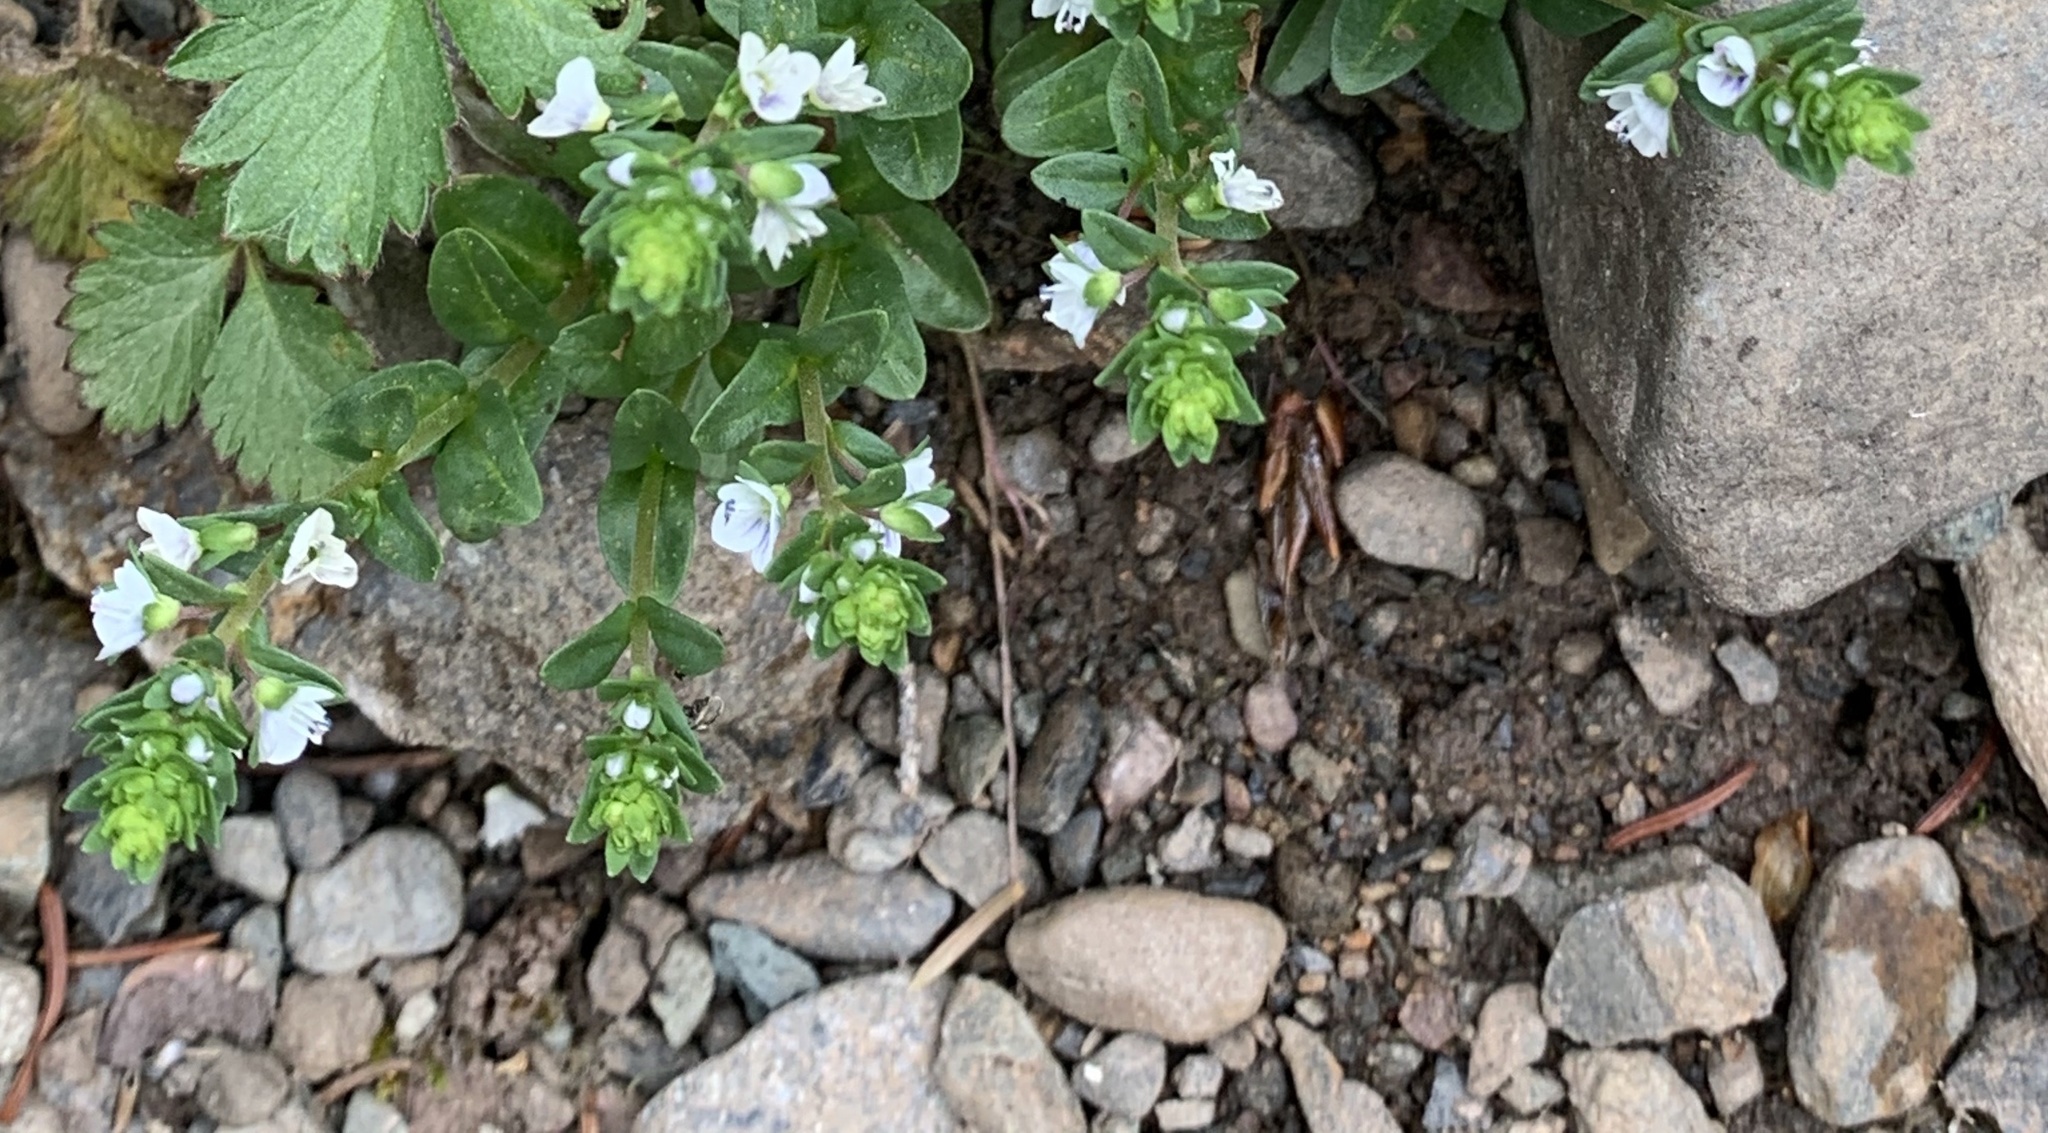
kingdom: Plantae
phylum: Tracheophyta
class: Magnoliopsida
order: Lamiales
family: Plantaginaceae
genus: Veronica
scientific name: Veronica serpyllifolia
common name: Thyme-leaved speedwell
